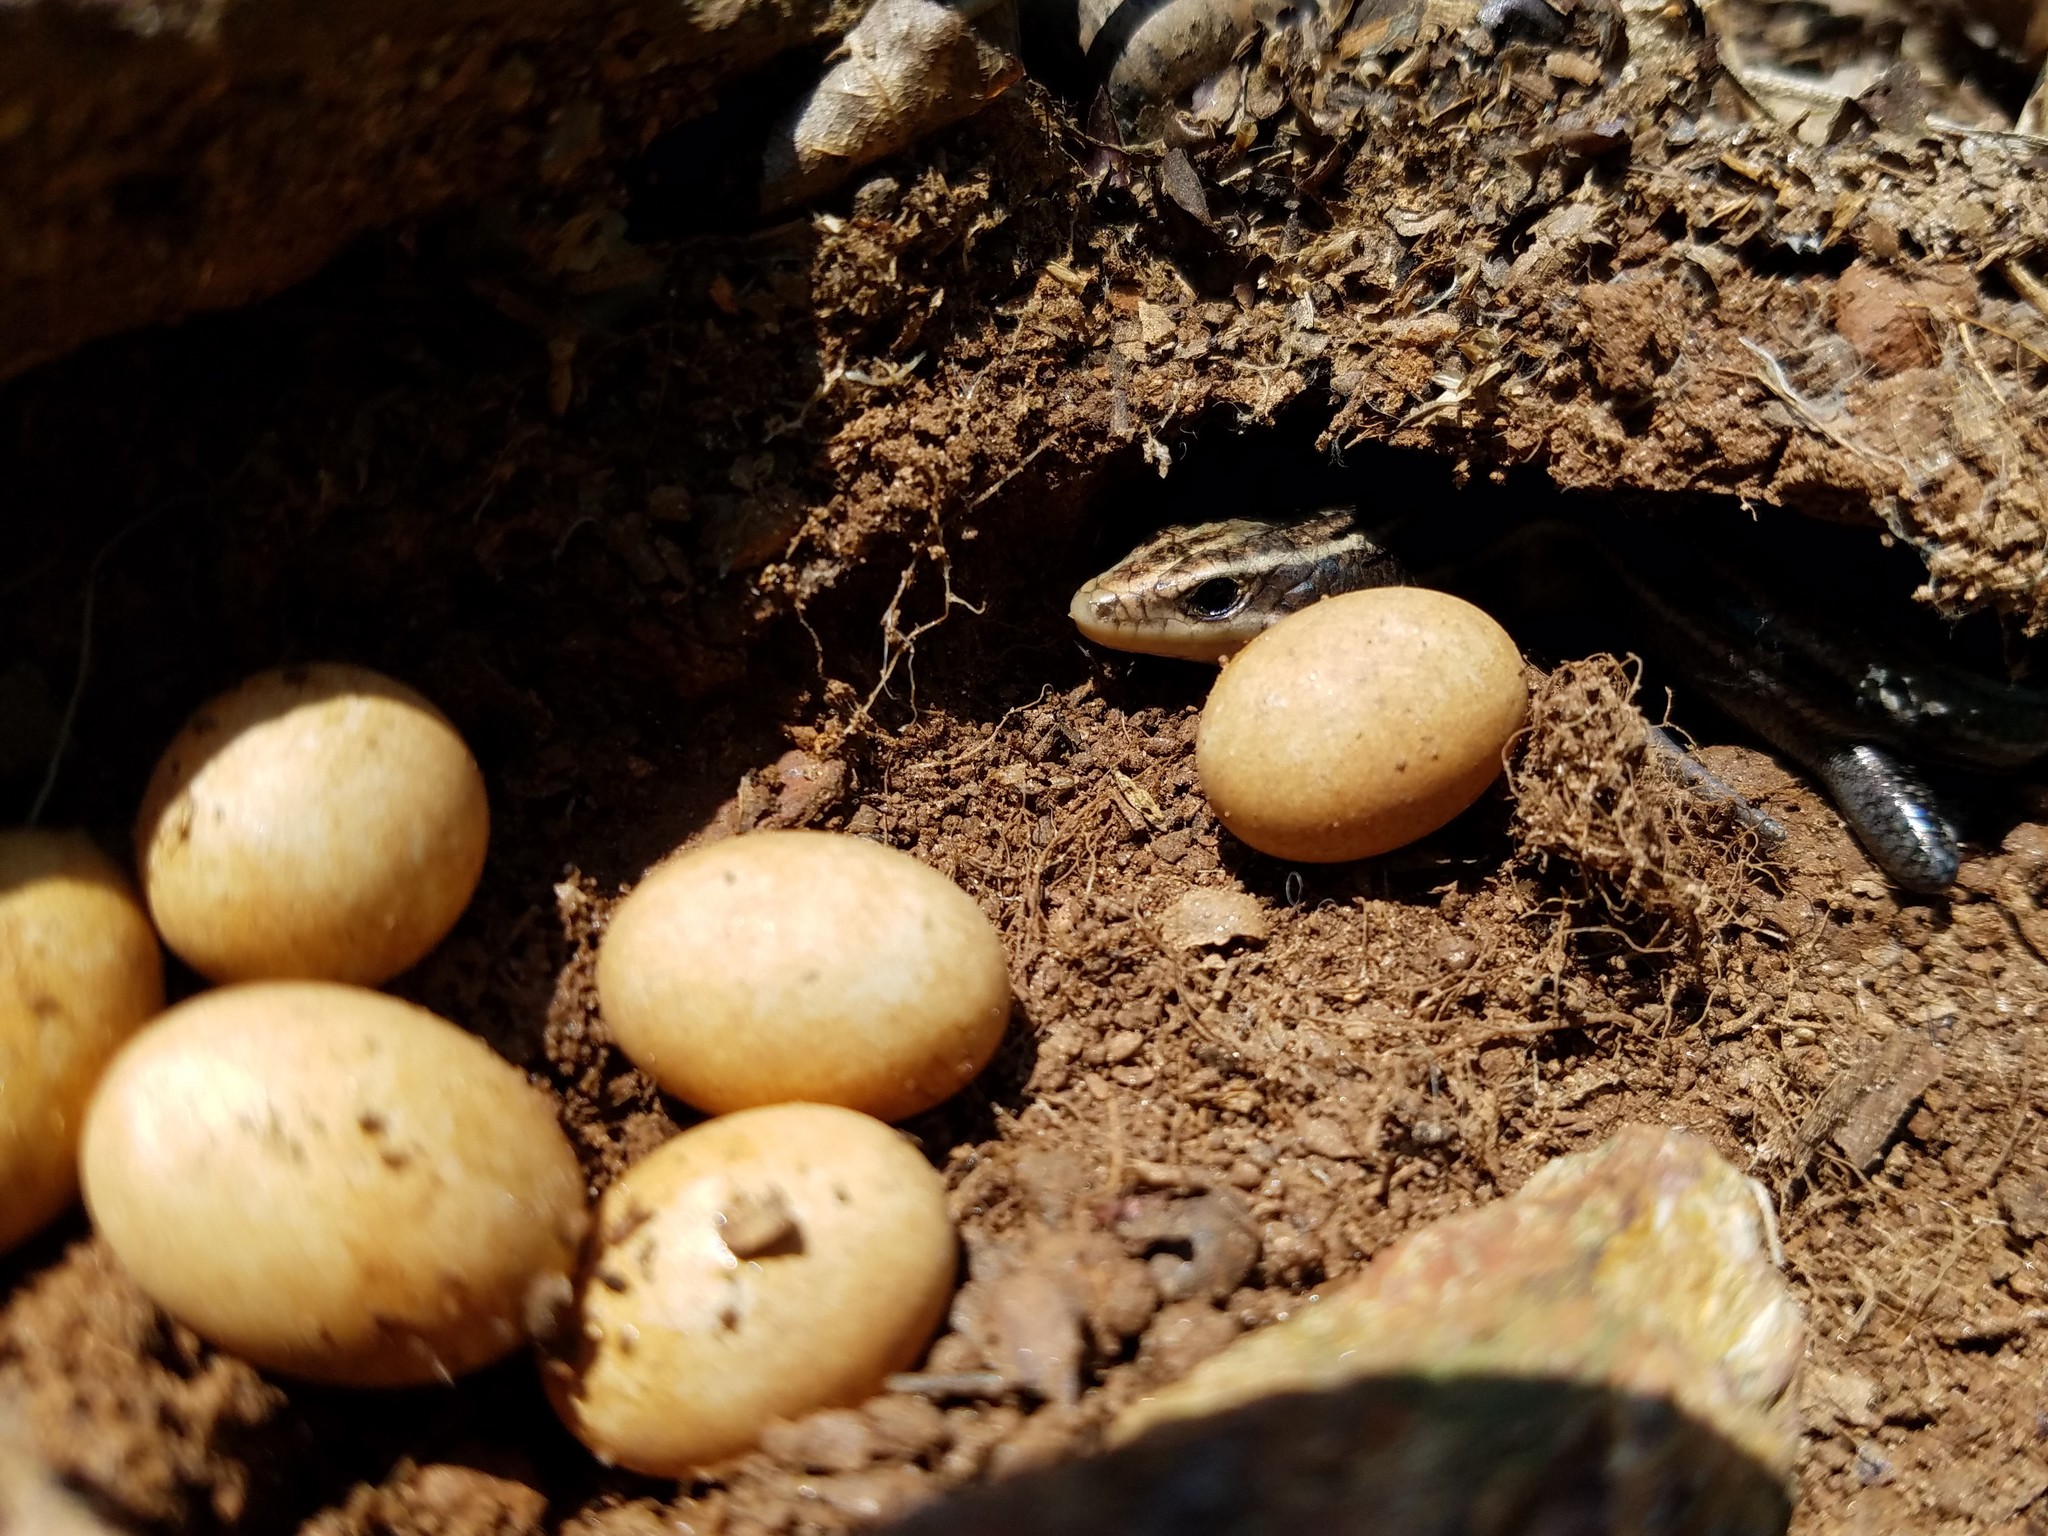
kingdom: Animalia
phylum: Chordata
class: Squamata
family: Scincidae
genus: Plestiodon
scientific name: Plestiodon
